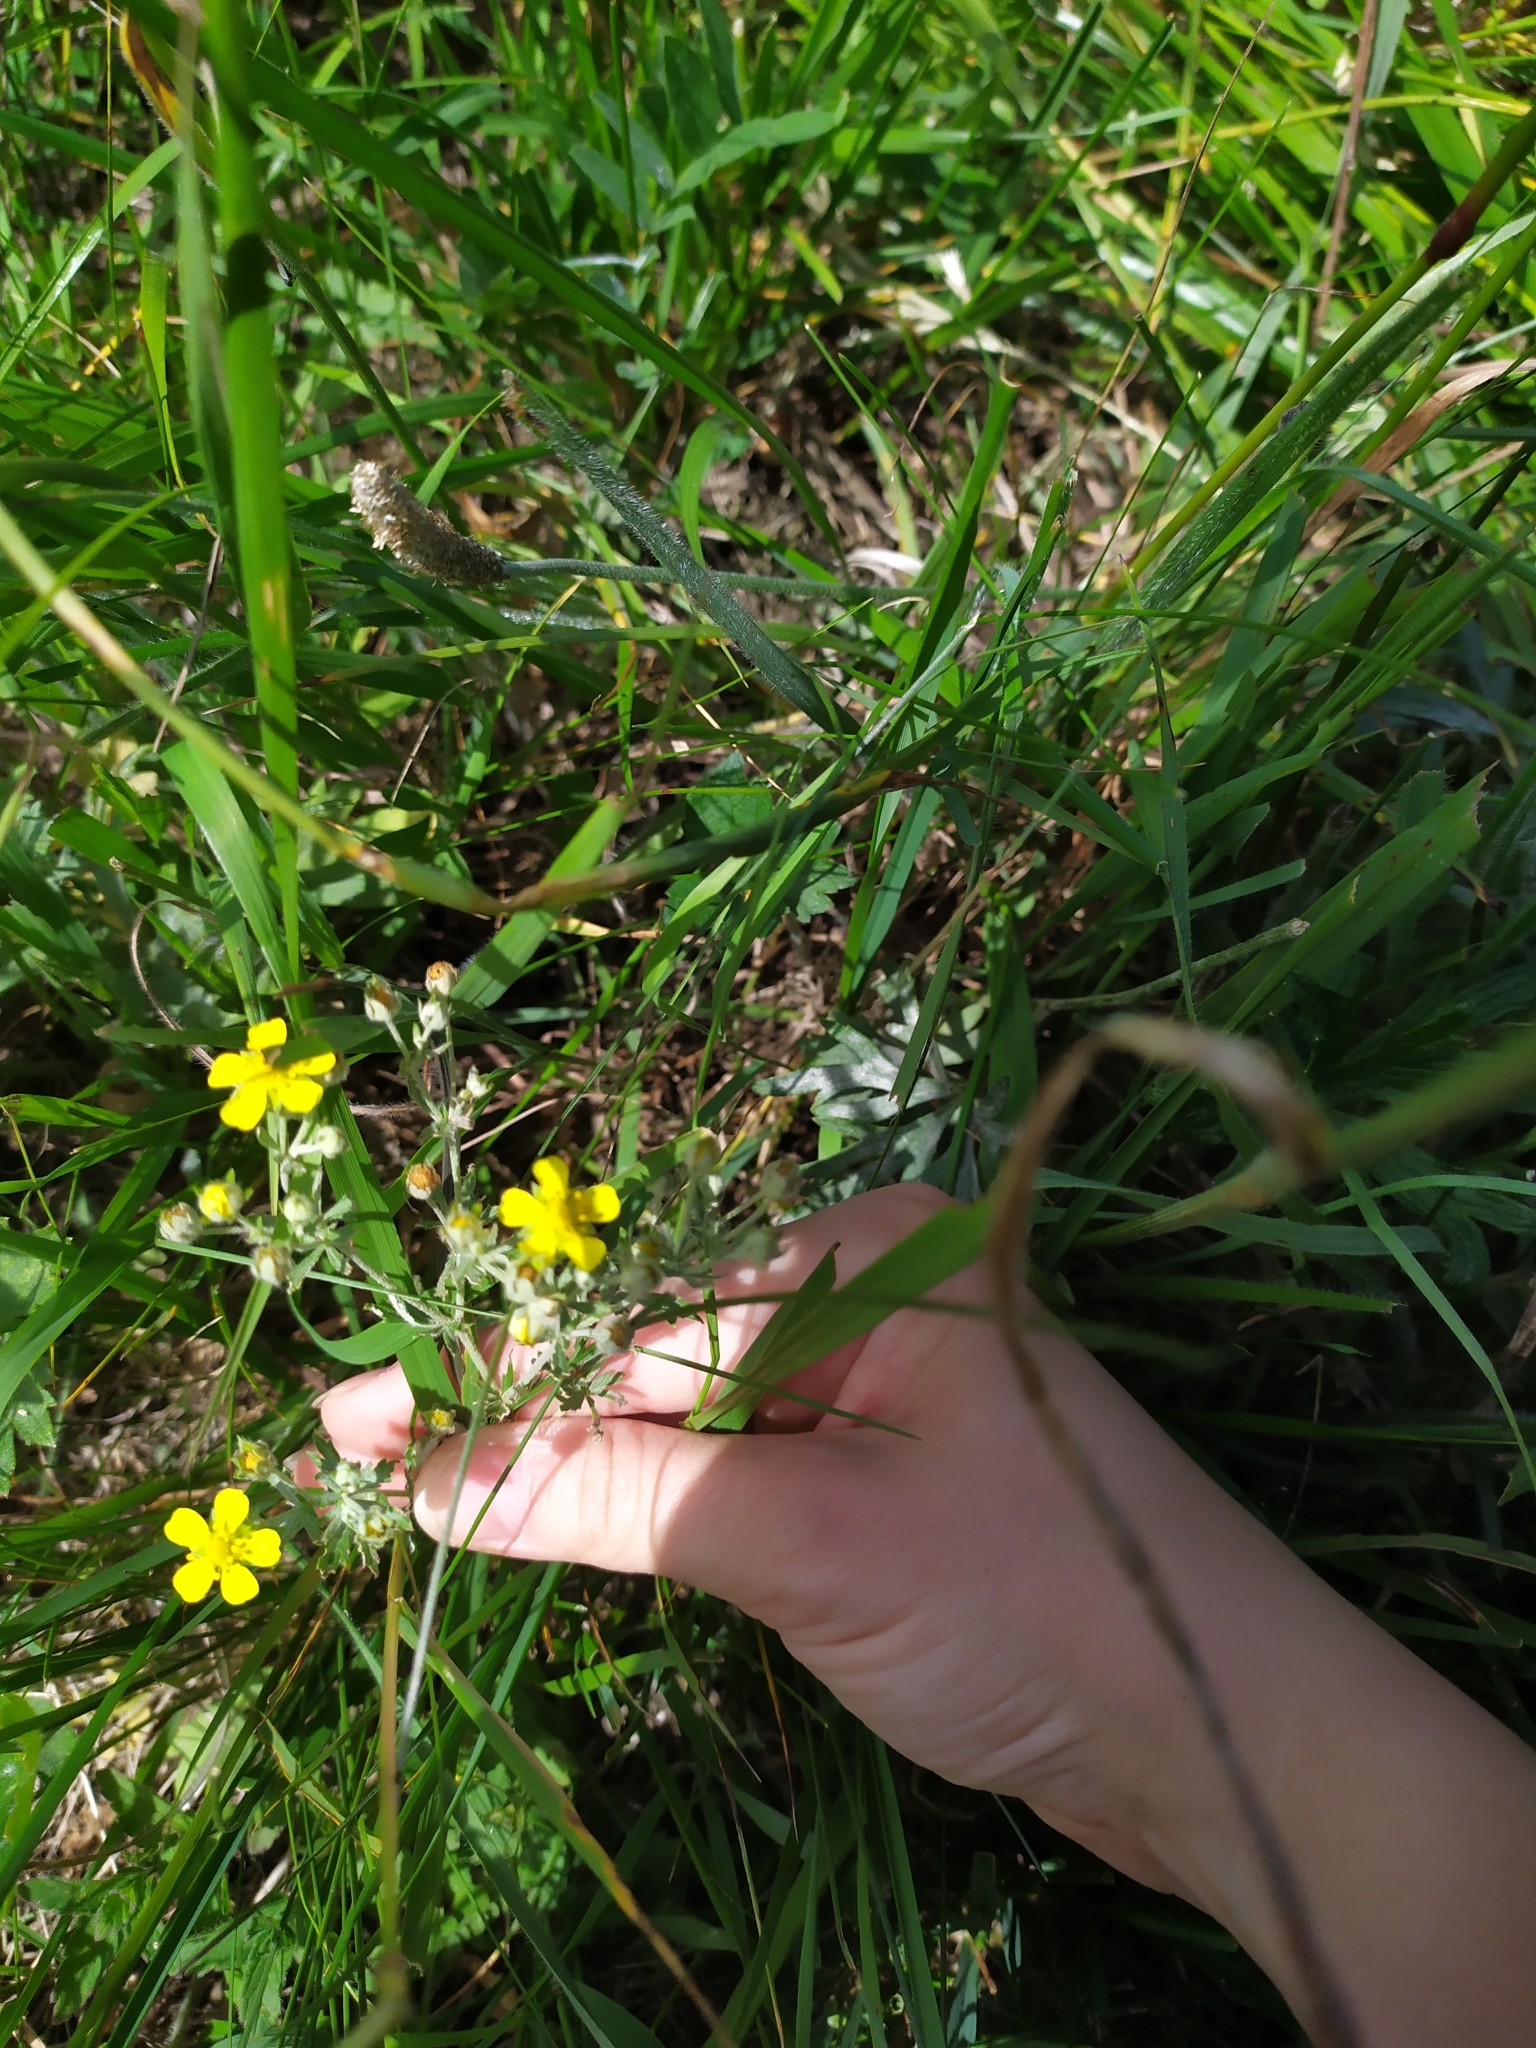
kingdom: Plantae
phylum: Tracheophyta
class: Magnoliopsida
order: Rosales
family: Rosaceae
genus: Potentilla
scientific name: Potentilla argentea
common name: Hoary cinquefoil
